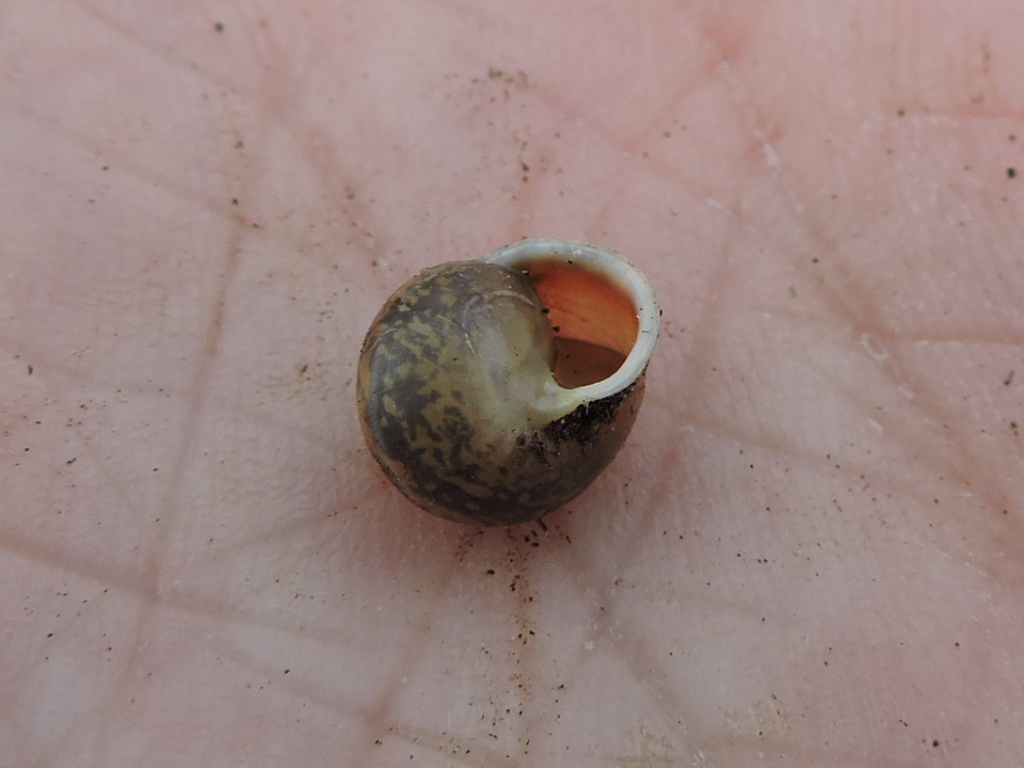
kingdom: Animalia
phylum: Mollusca
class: Gastropoda
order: Cycloneritida
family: Helicinidae
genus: Helicina
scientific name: Helicina orbiculata
